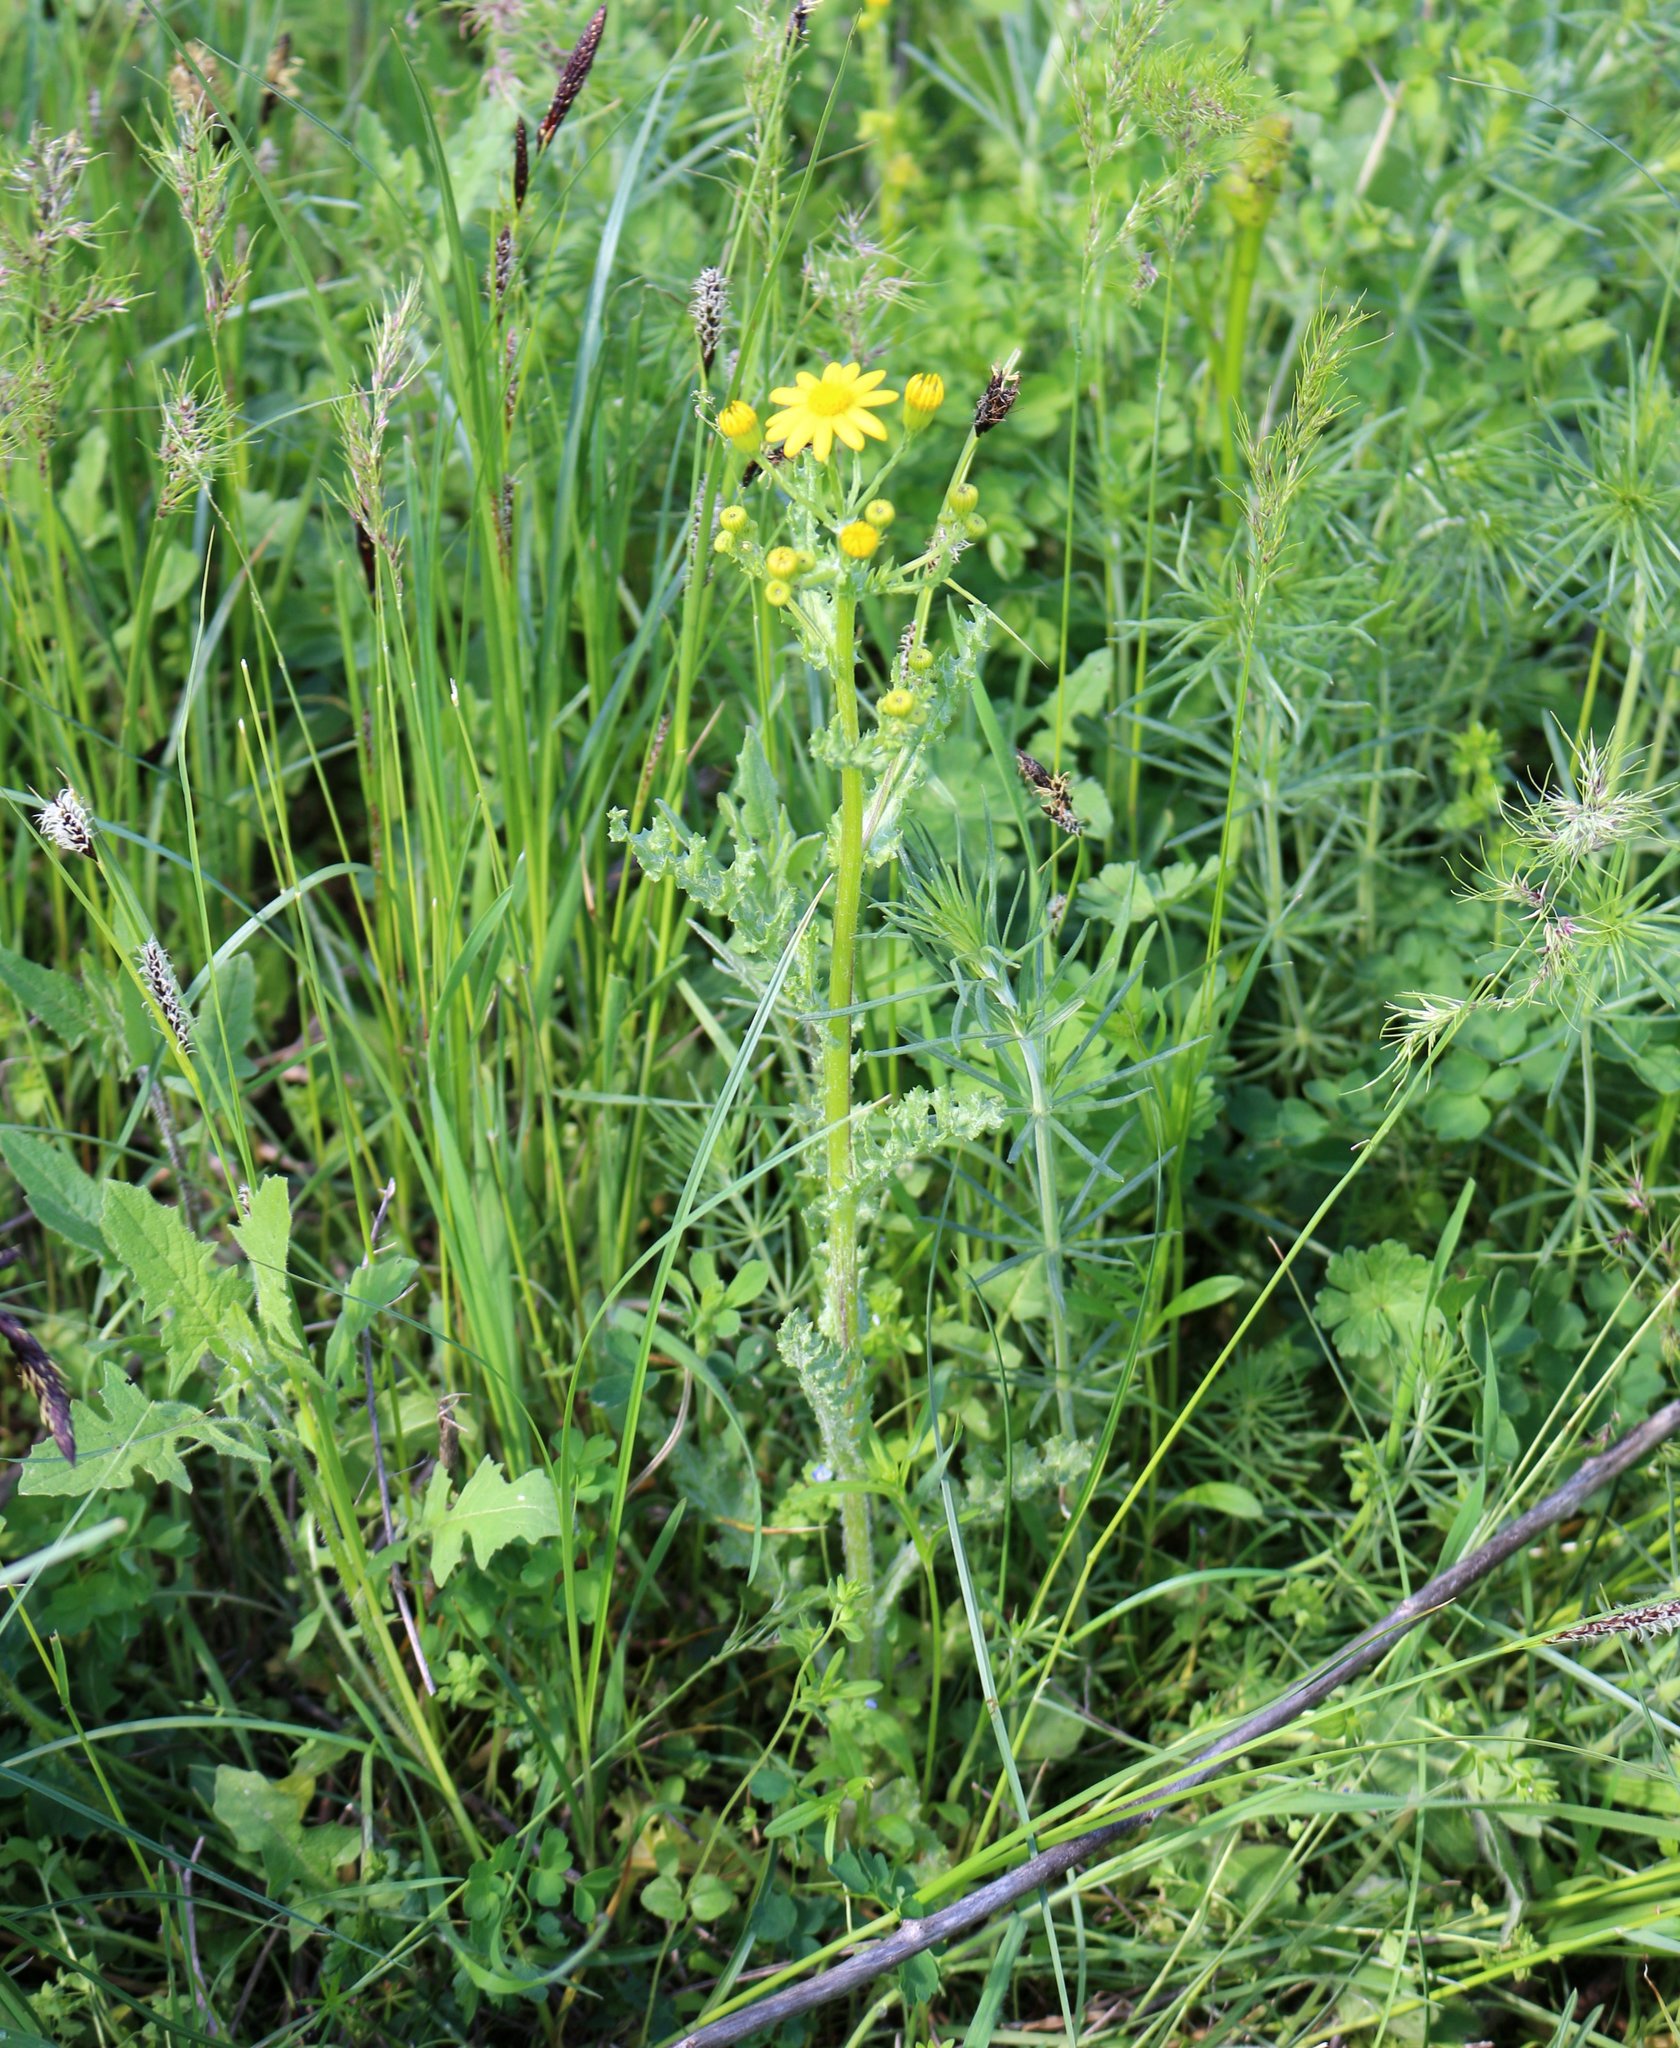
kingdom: Plantae
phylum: Tracheophyta
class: Magnoliopsida
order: Asterales
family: Asteraceae
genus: Senecio
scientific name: Senecio vernalis
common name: Eastern groundsel
